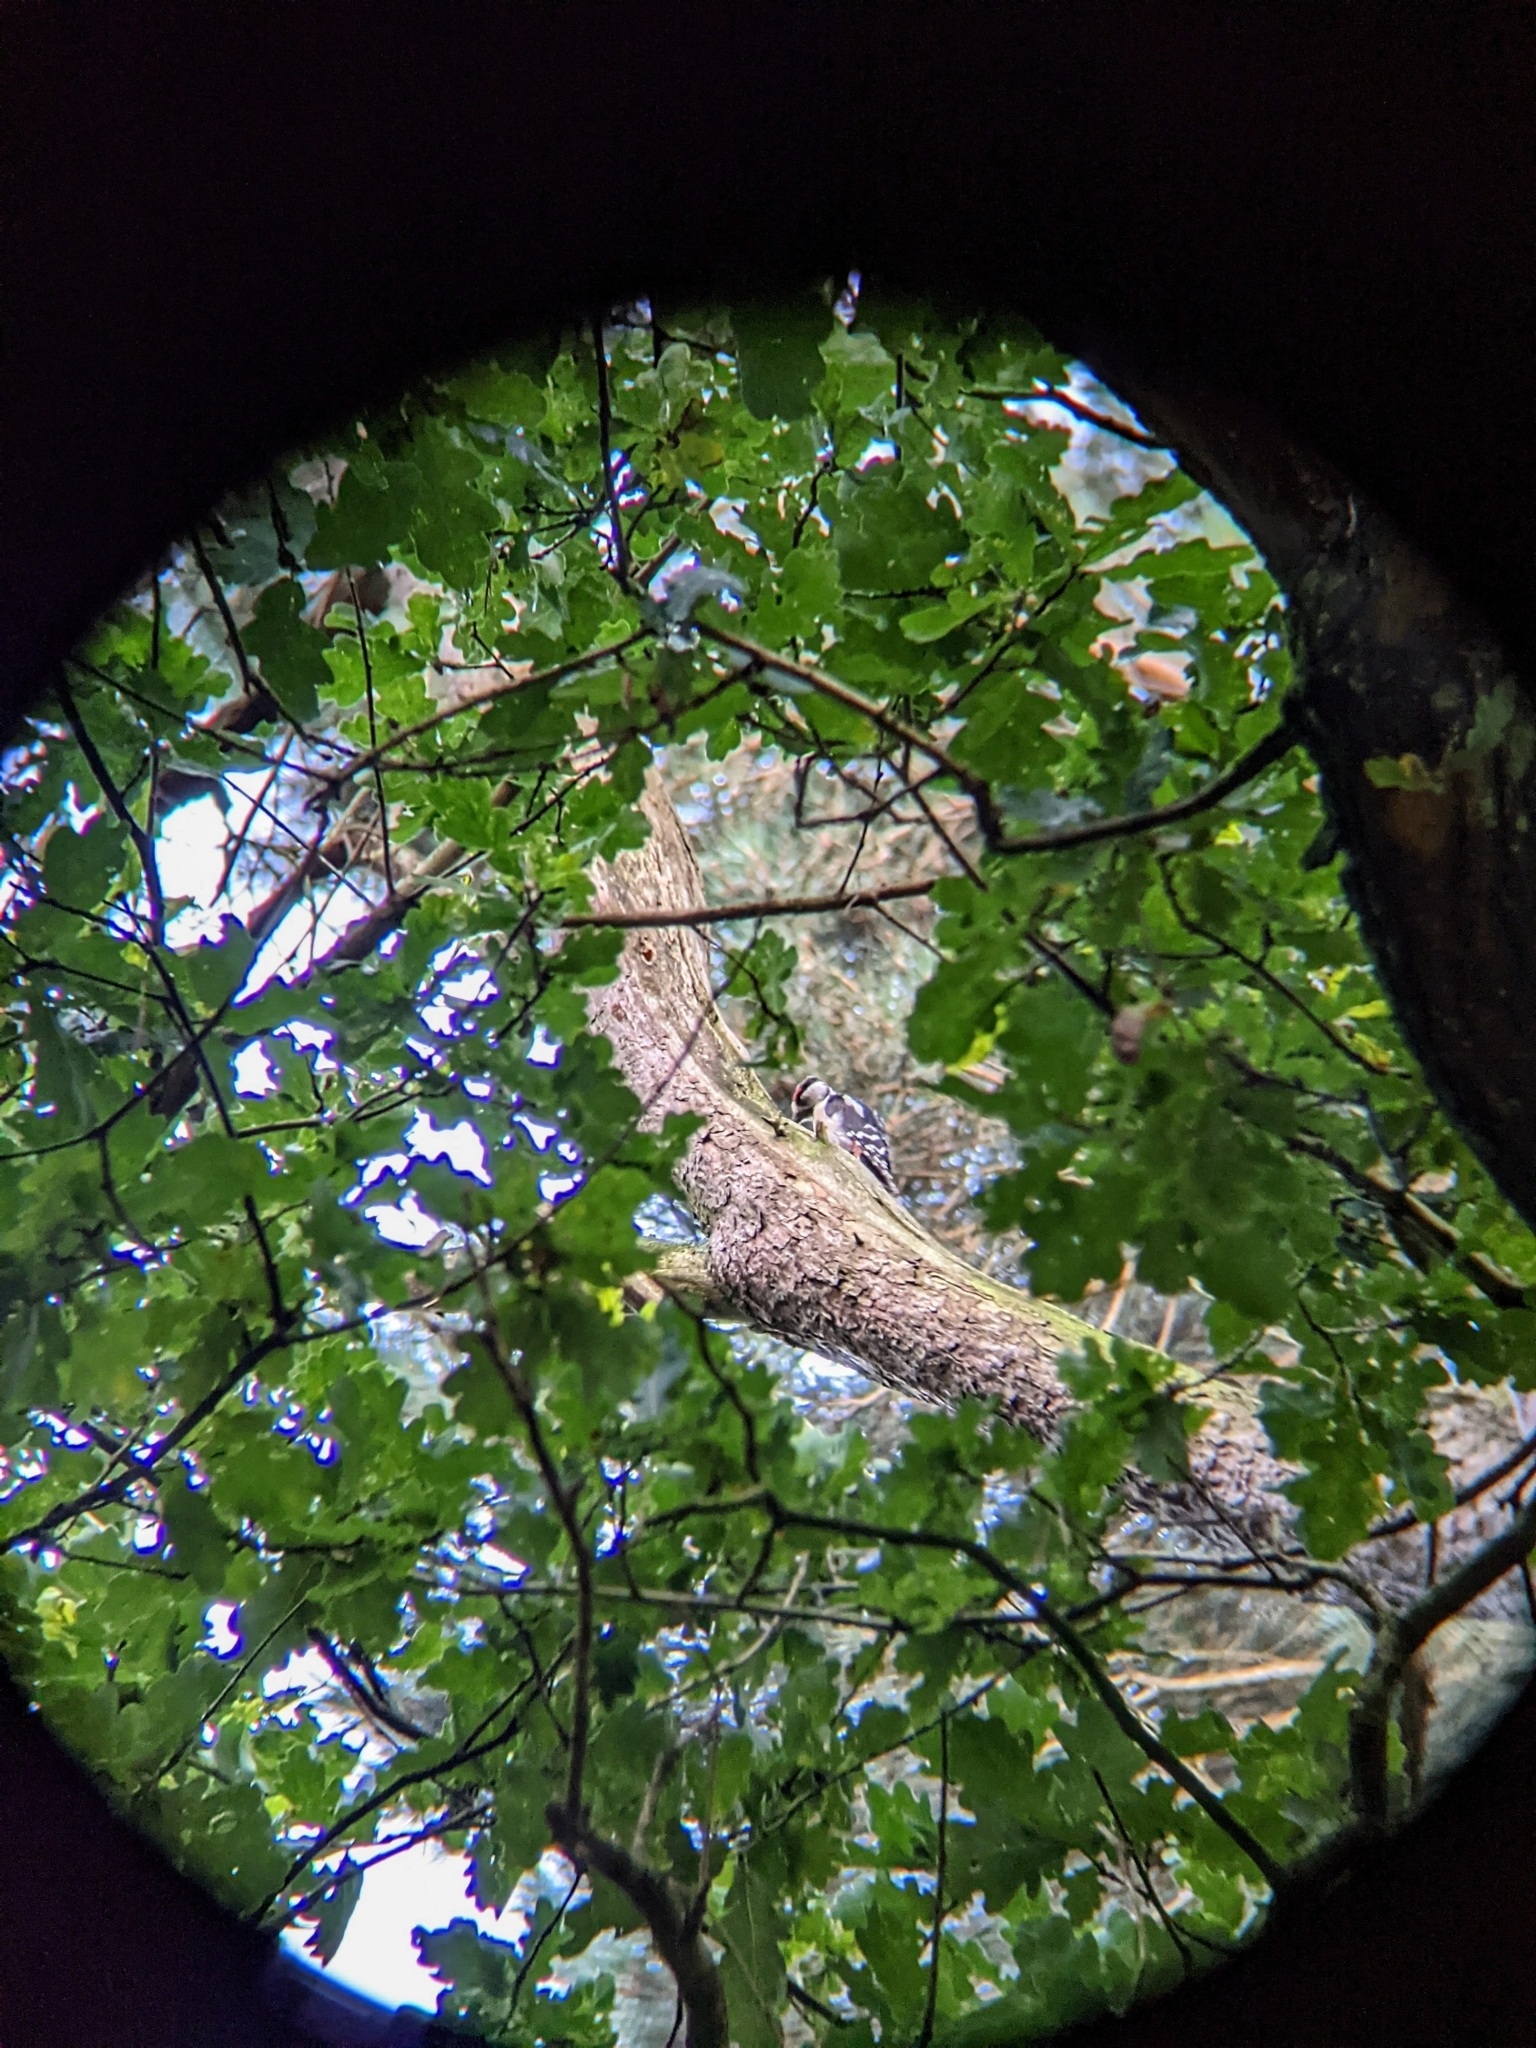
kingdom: Animalia
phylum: Chordata
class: Aves
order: Piciformes
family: Picidae
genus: Dendrocopos
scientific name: Dendrocopos major
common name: Great spotted woodpecker
